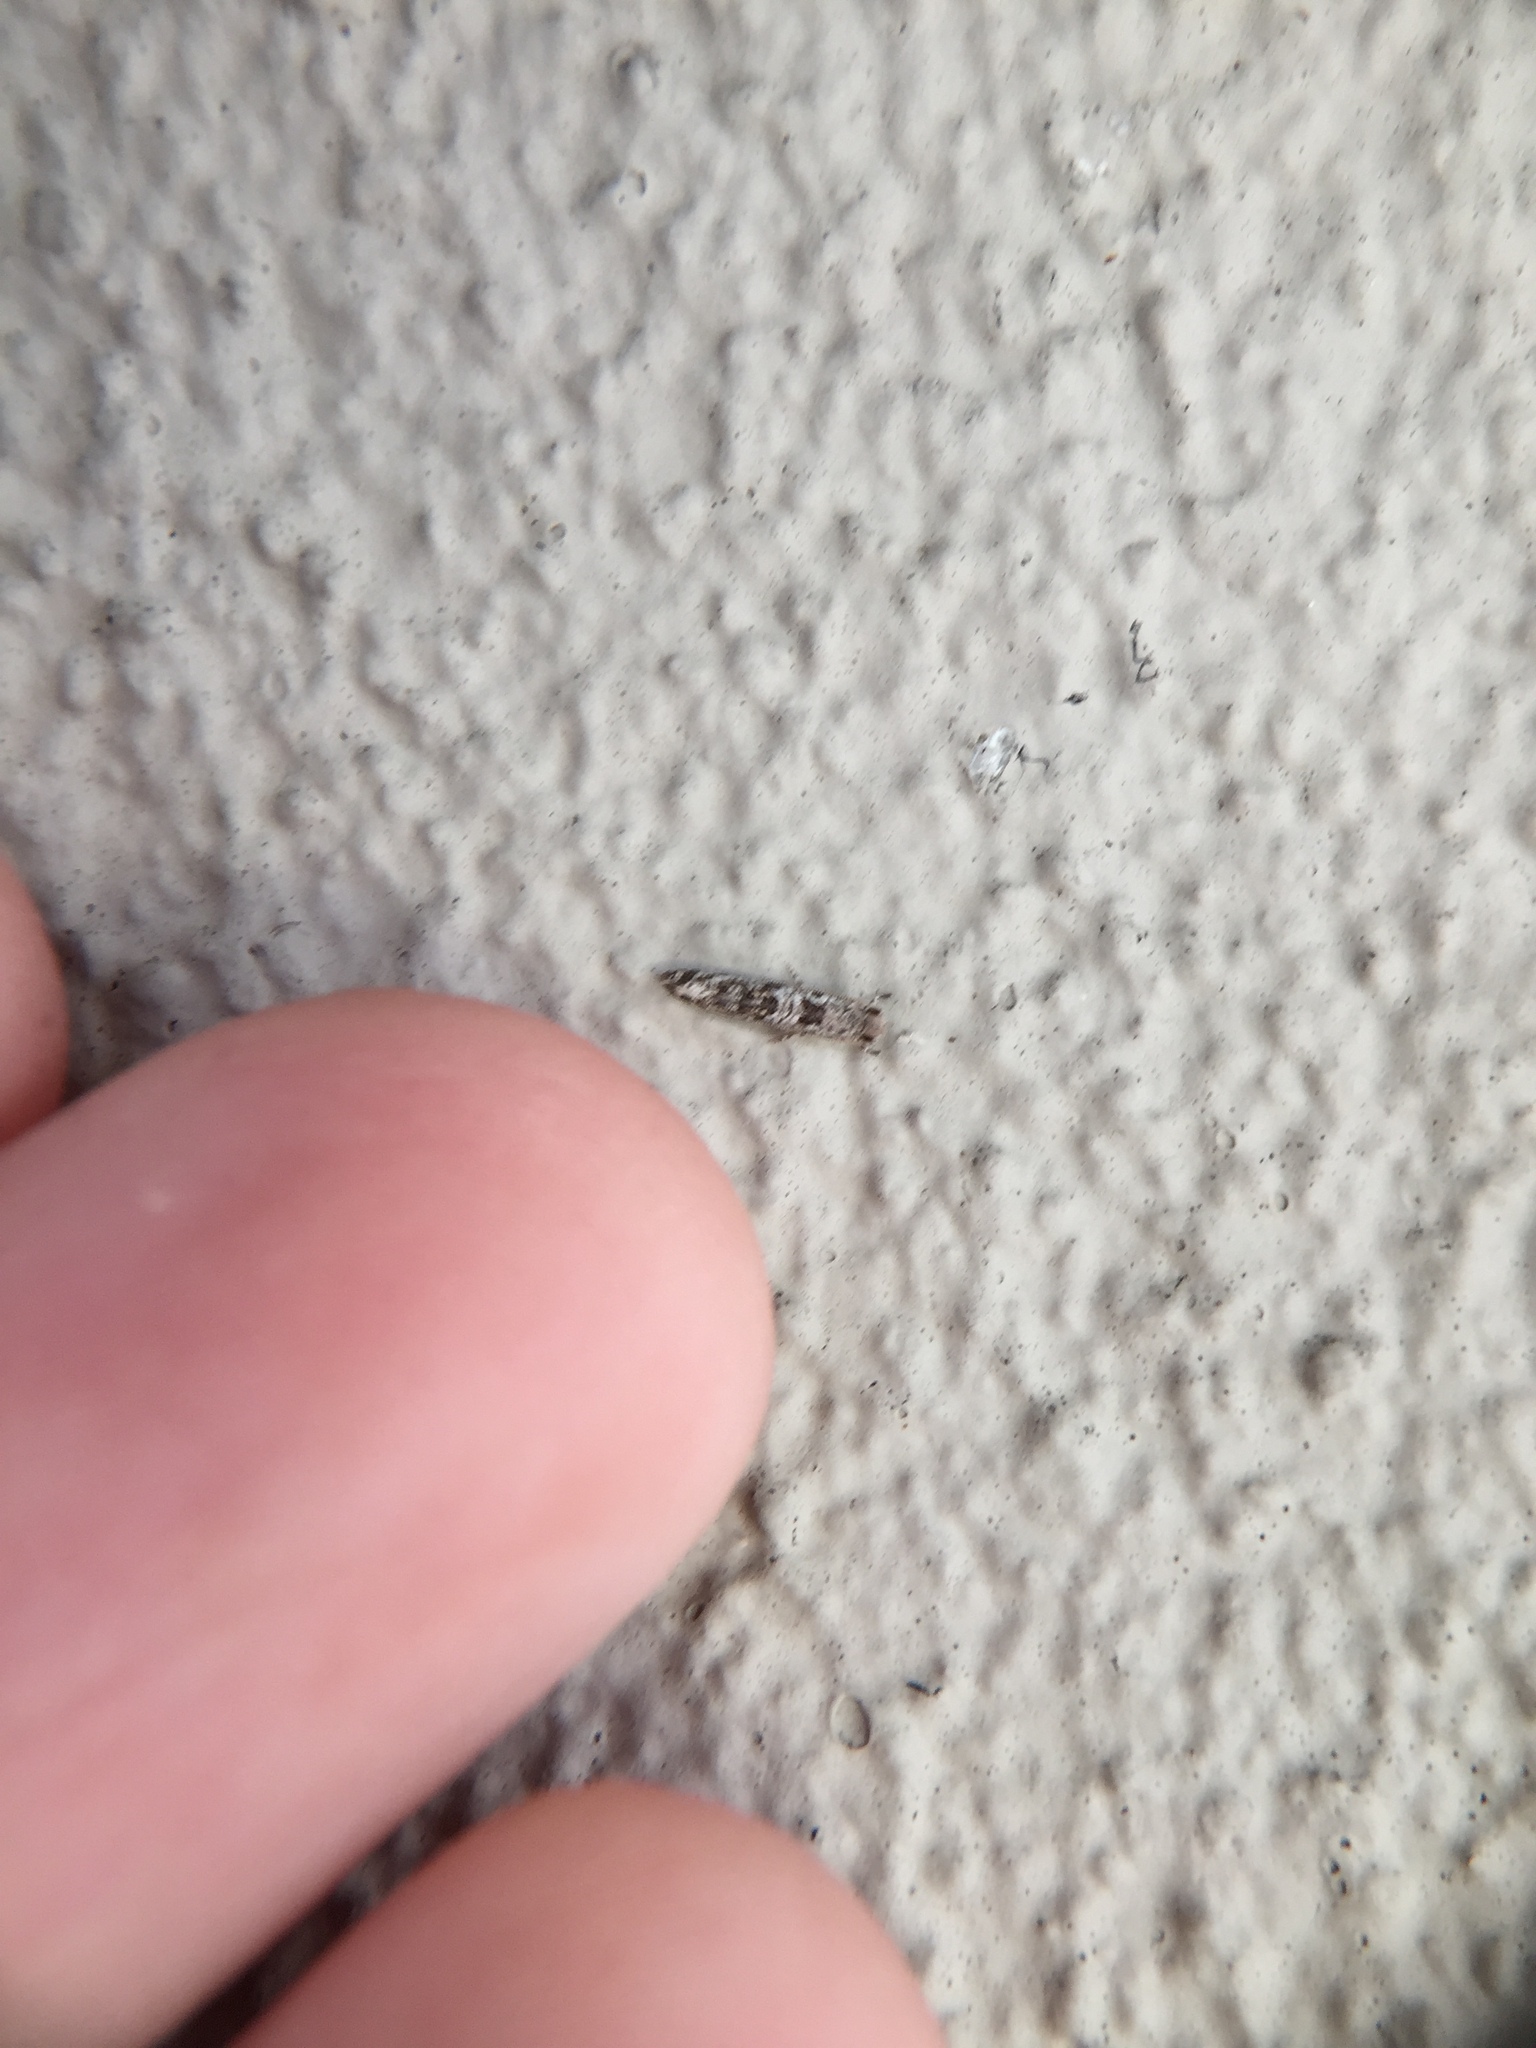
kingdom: Animalia
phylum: Arthropoda
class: Insecta
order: Lepidoptera
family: Tineidae
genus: Archyala
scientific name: Archyala paraglypta
